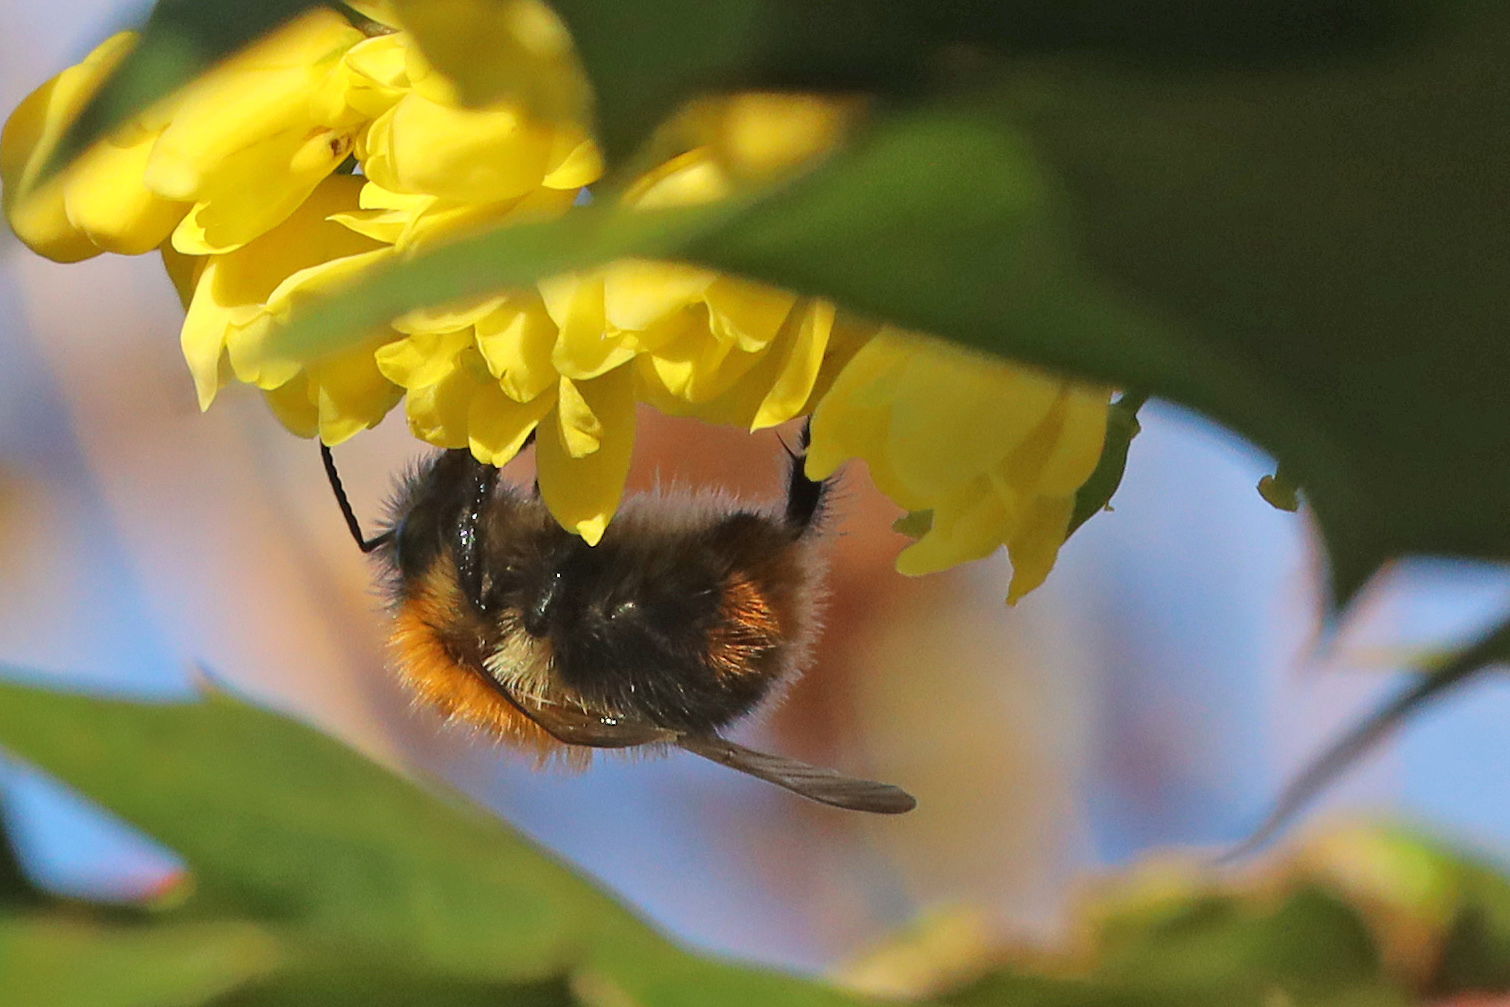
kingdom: Animalia
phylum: Arthropoda
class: Insecta
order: Hymenoptera
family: Apidae
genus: Bombus
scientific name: Bombus pascuorum
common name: Common carder bee
